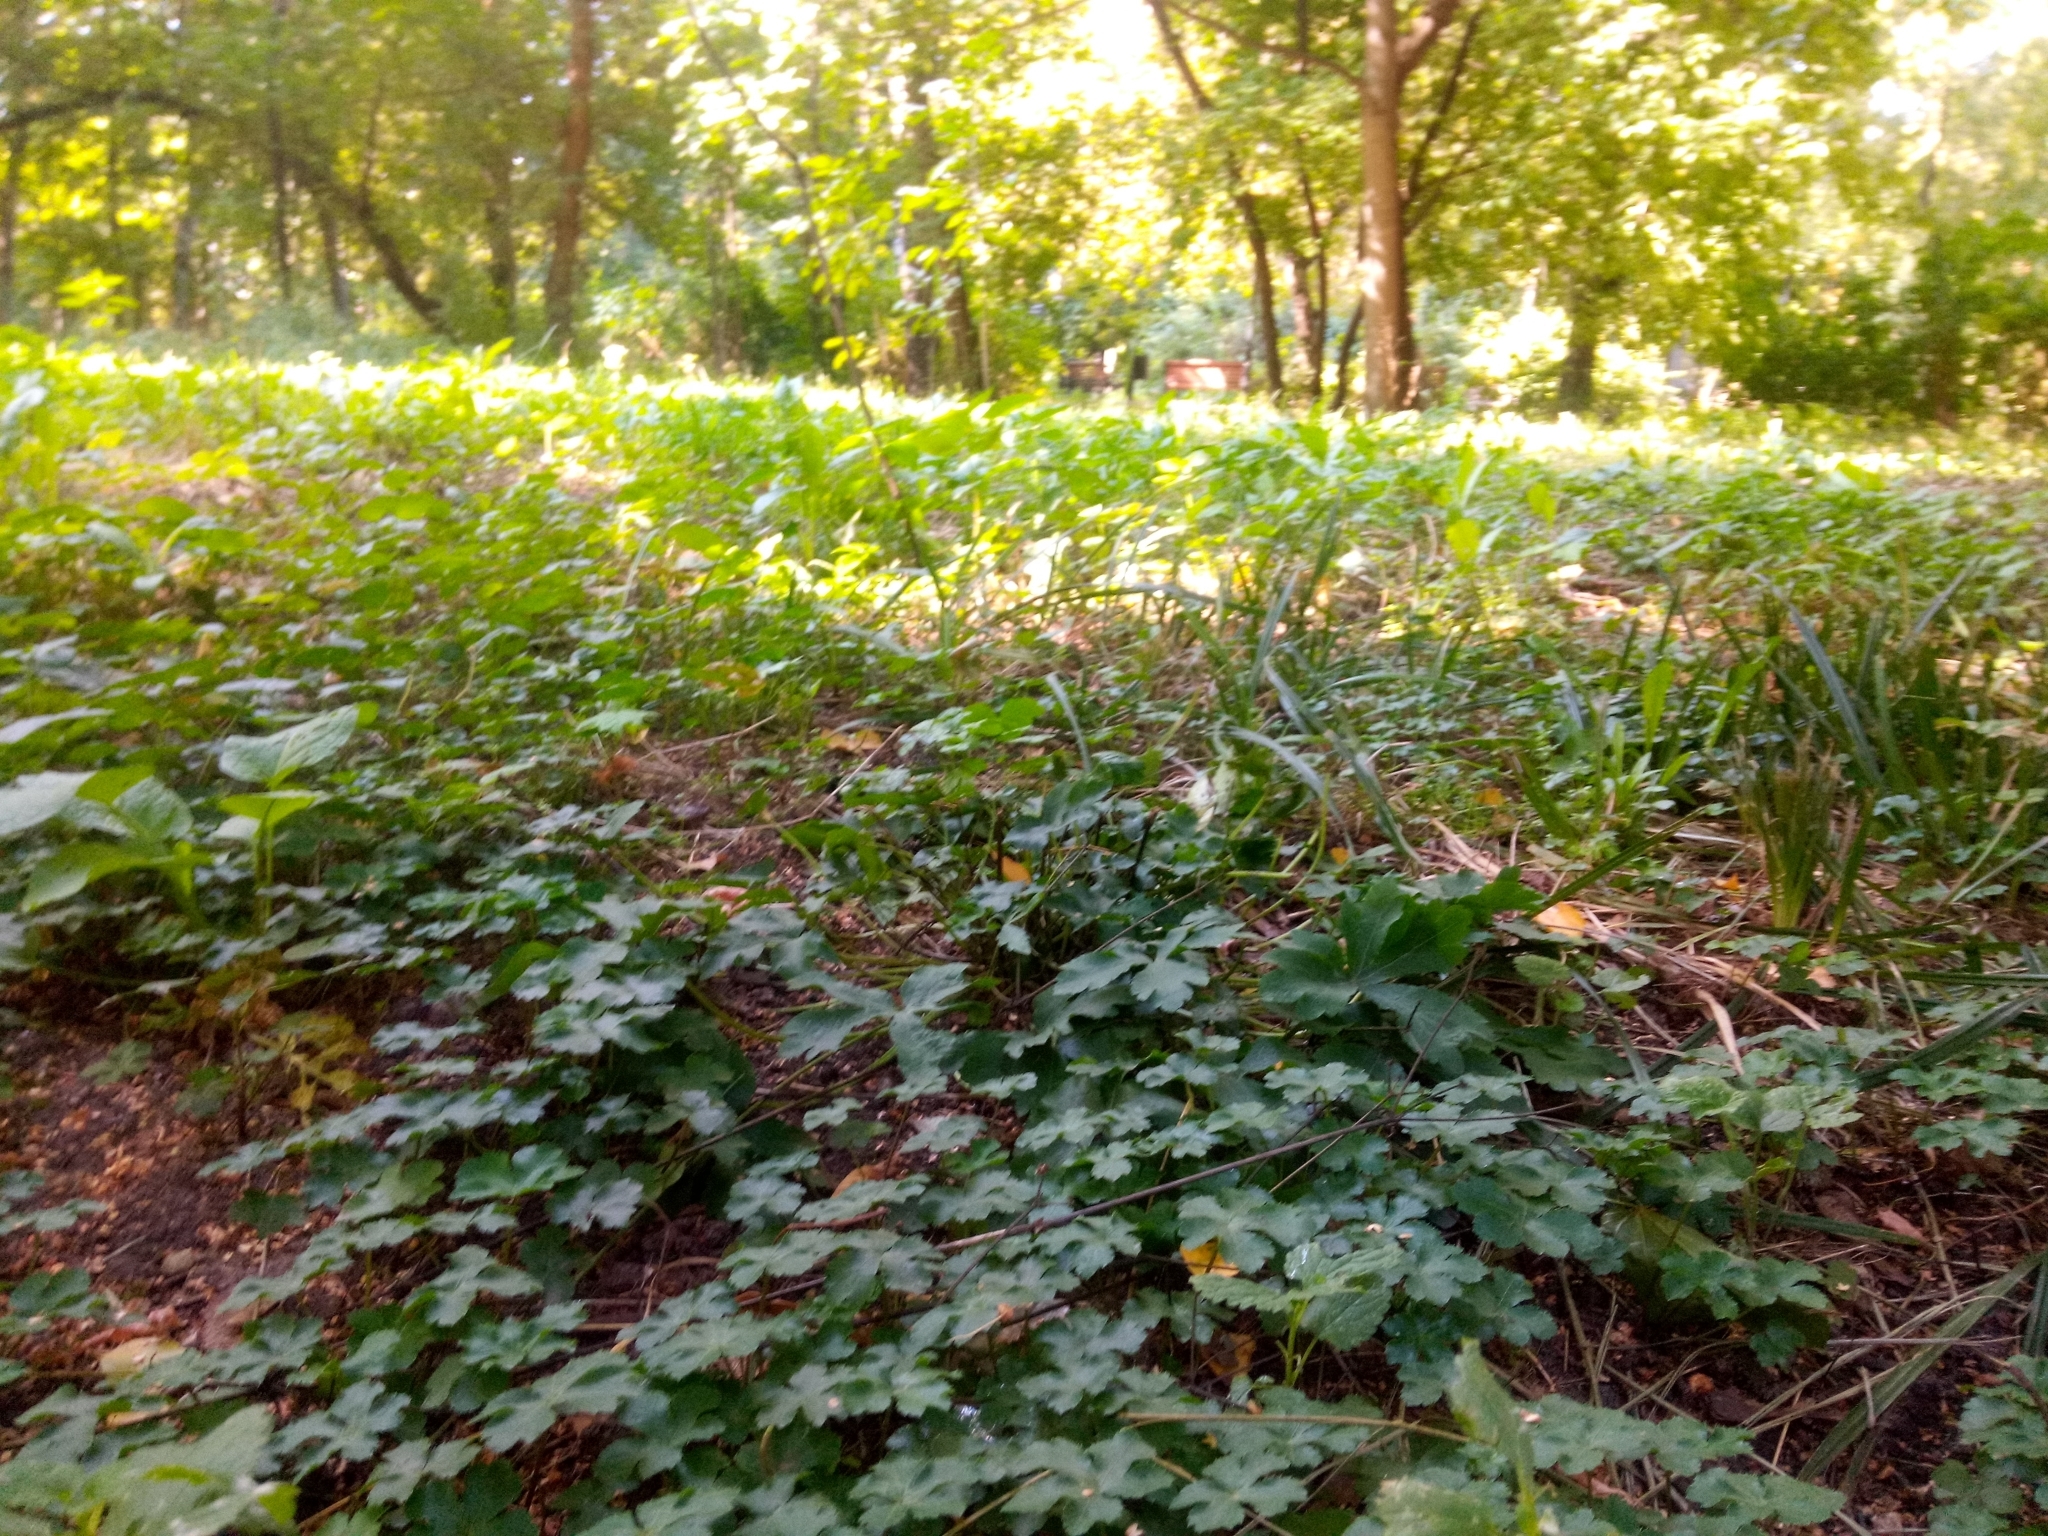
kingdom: Plantae
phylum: Tracheophyta
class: Magnoliopsida
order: Apiales
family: Apiaceae
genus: Sanicula
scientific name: Sanicula europaea
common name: Sanicle
